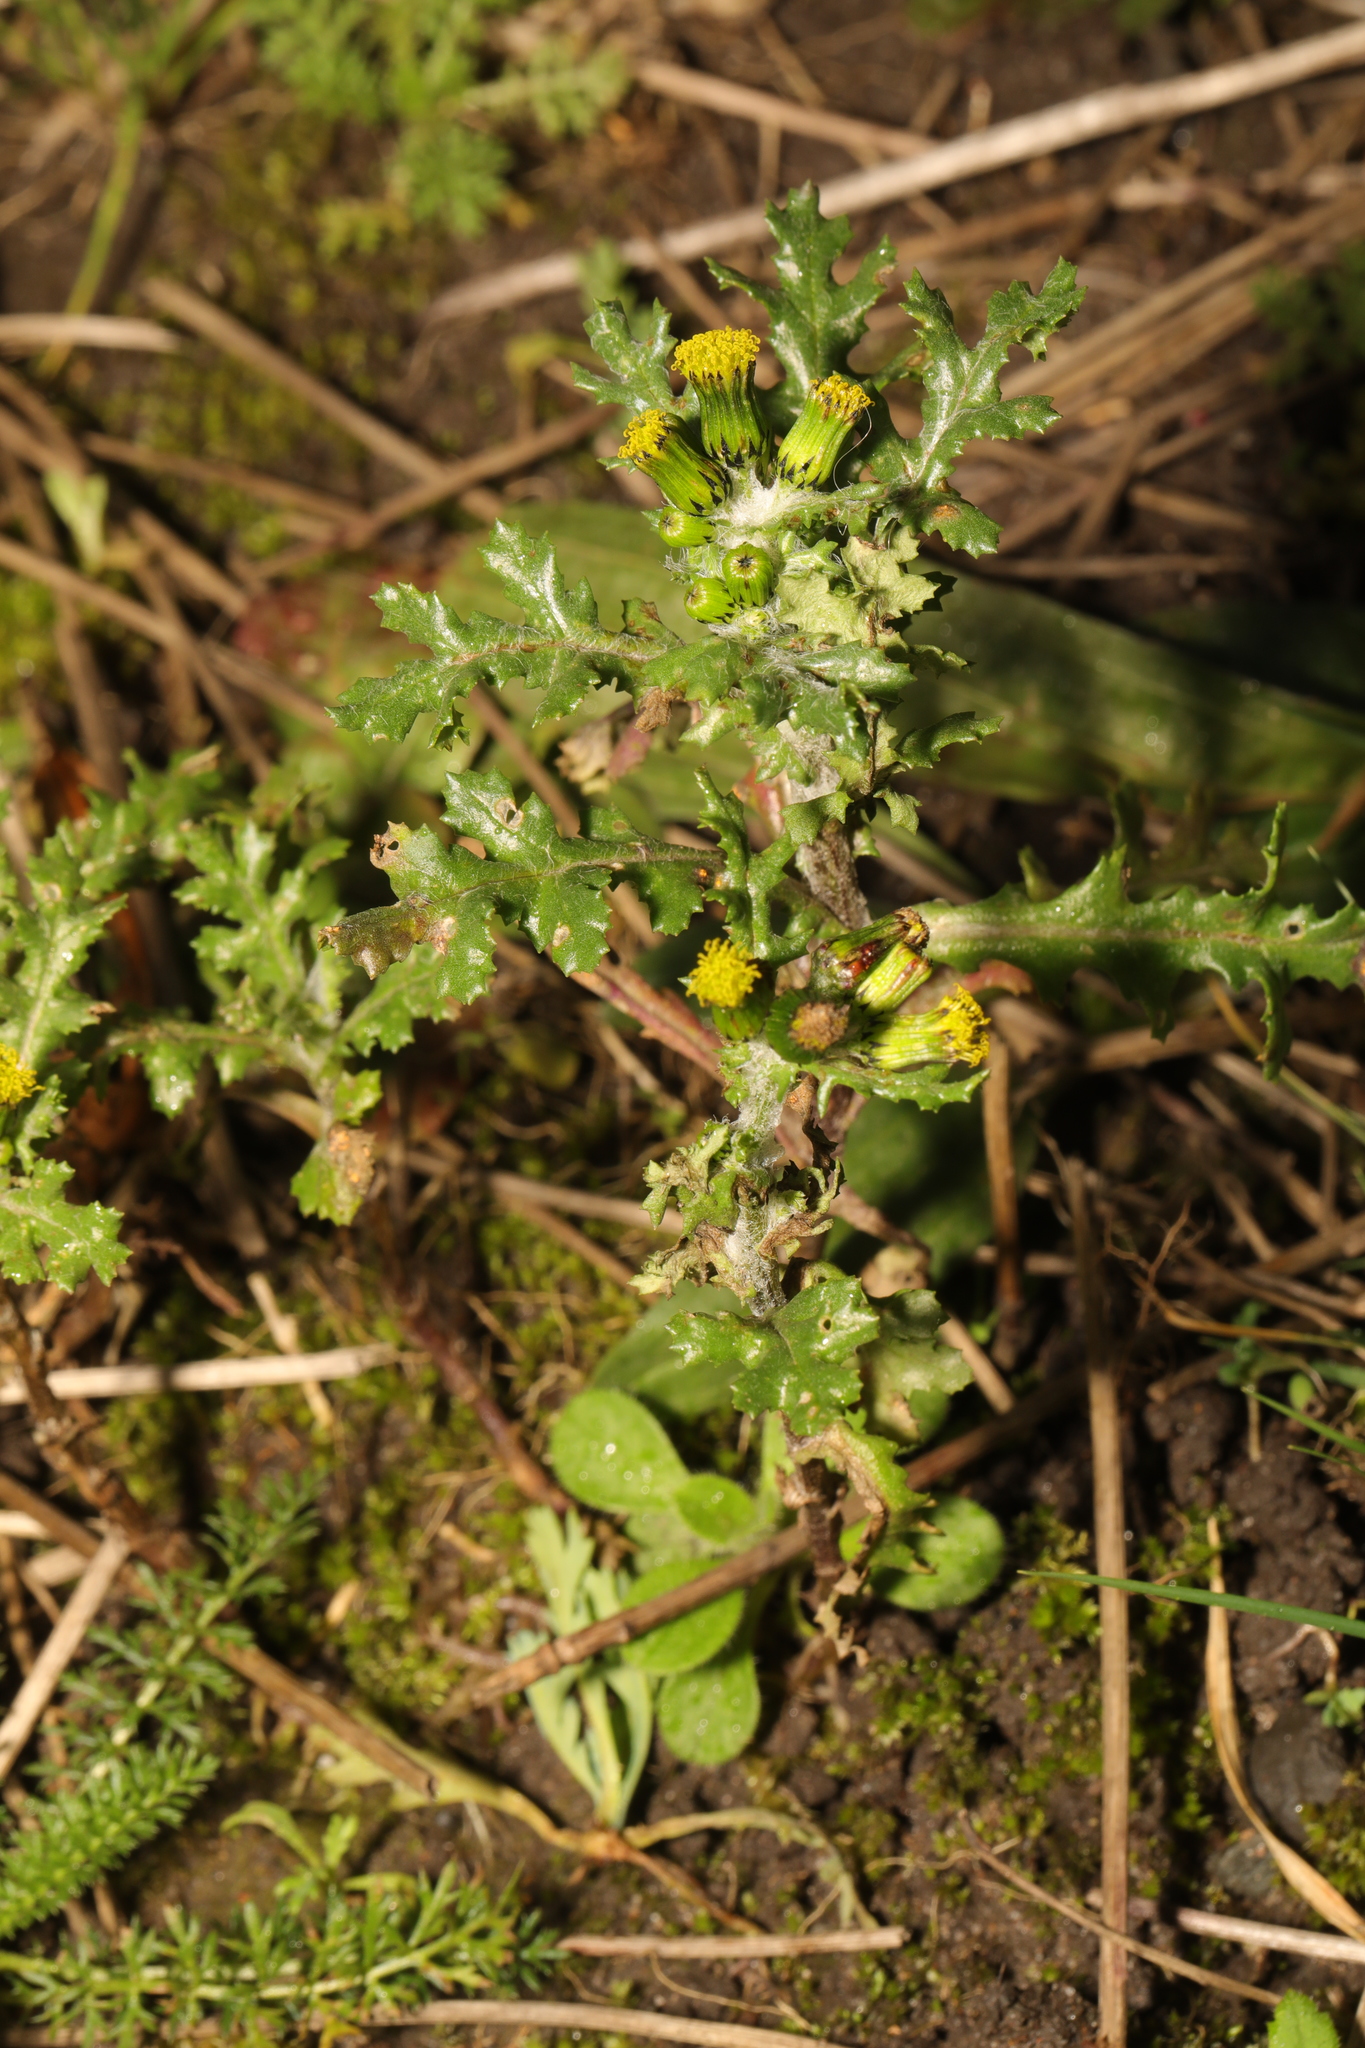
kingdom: Plantae
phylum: Tracheophyta
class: Magnoliopsida
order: Asterales
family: Asteraceae
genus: Senecio
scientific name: Senecio vulgaris
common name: Old-man-in-the-spring
